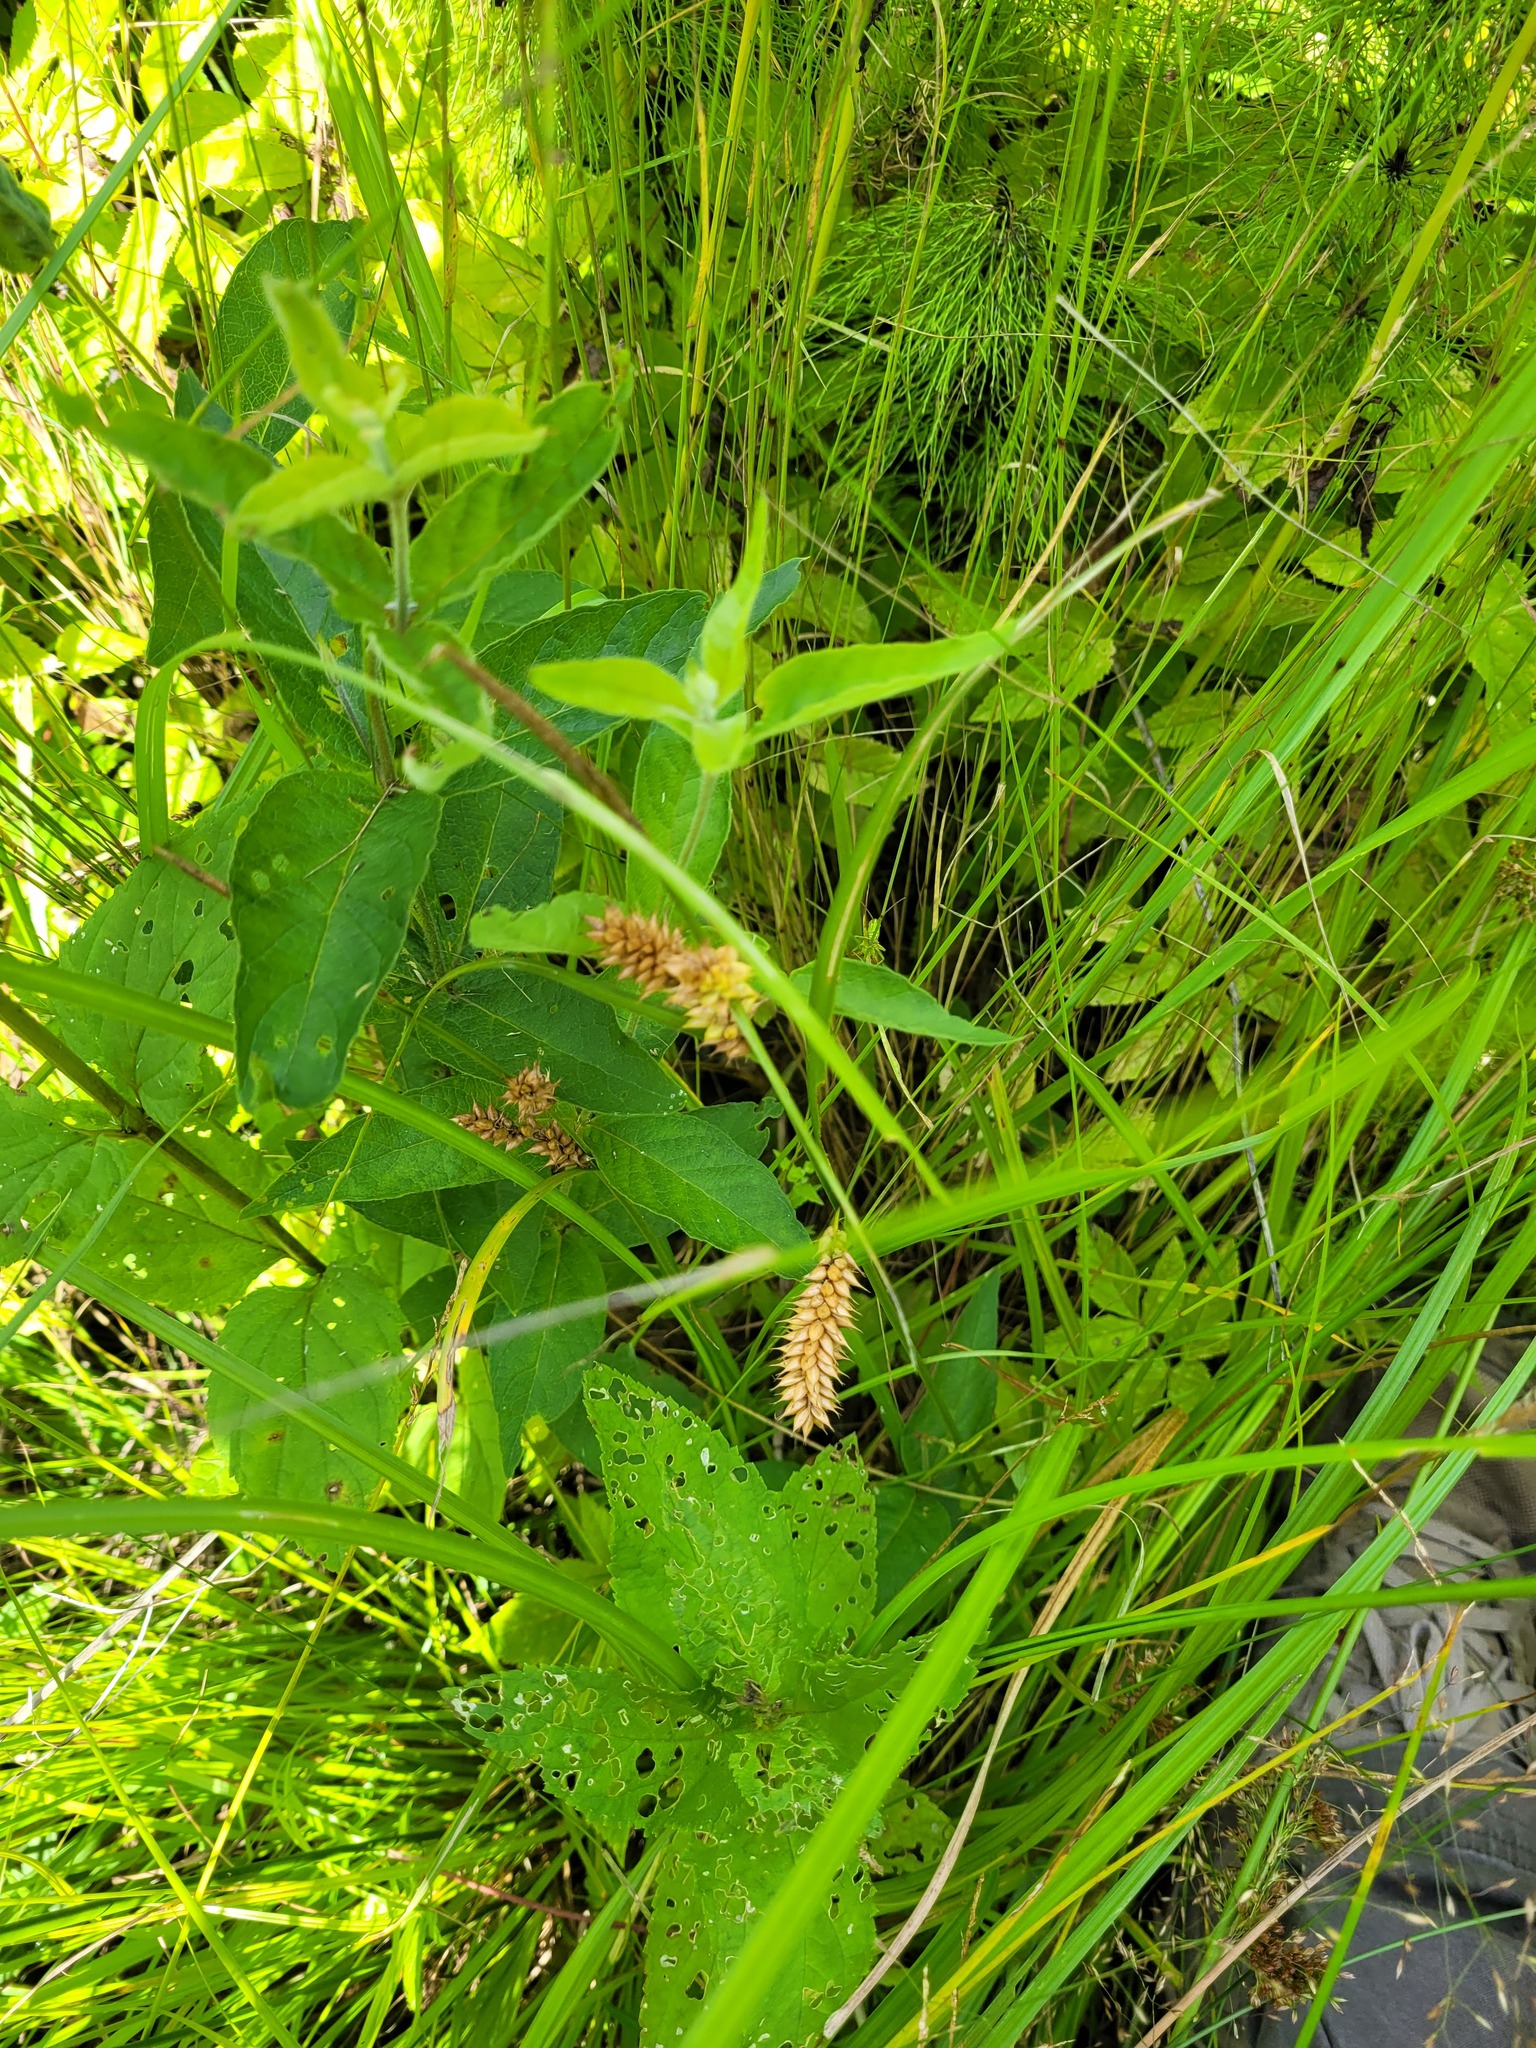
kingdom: Plantae
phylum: Tracheophyta
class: Liliopsida
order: Poales
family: Cyperaceae
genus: Carex
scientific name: Carex vesicaria
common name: Bladder-sedge
